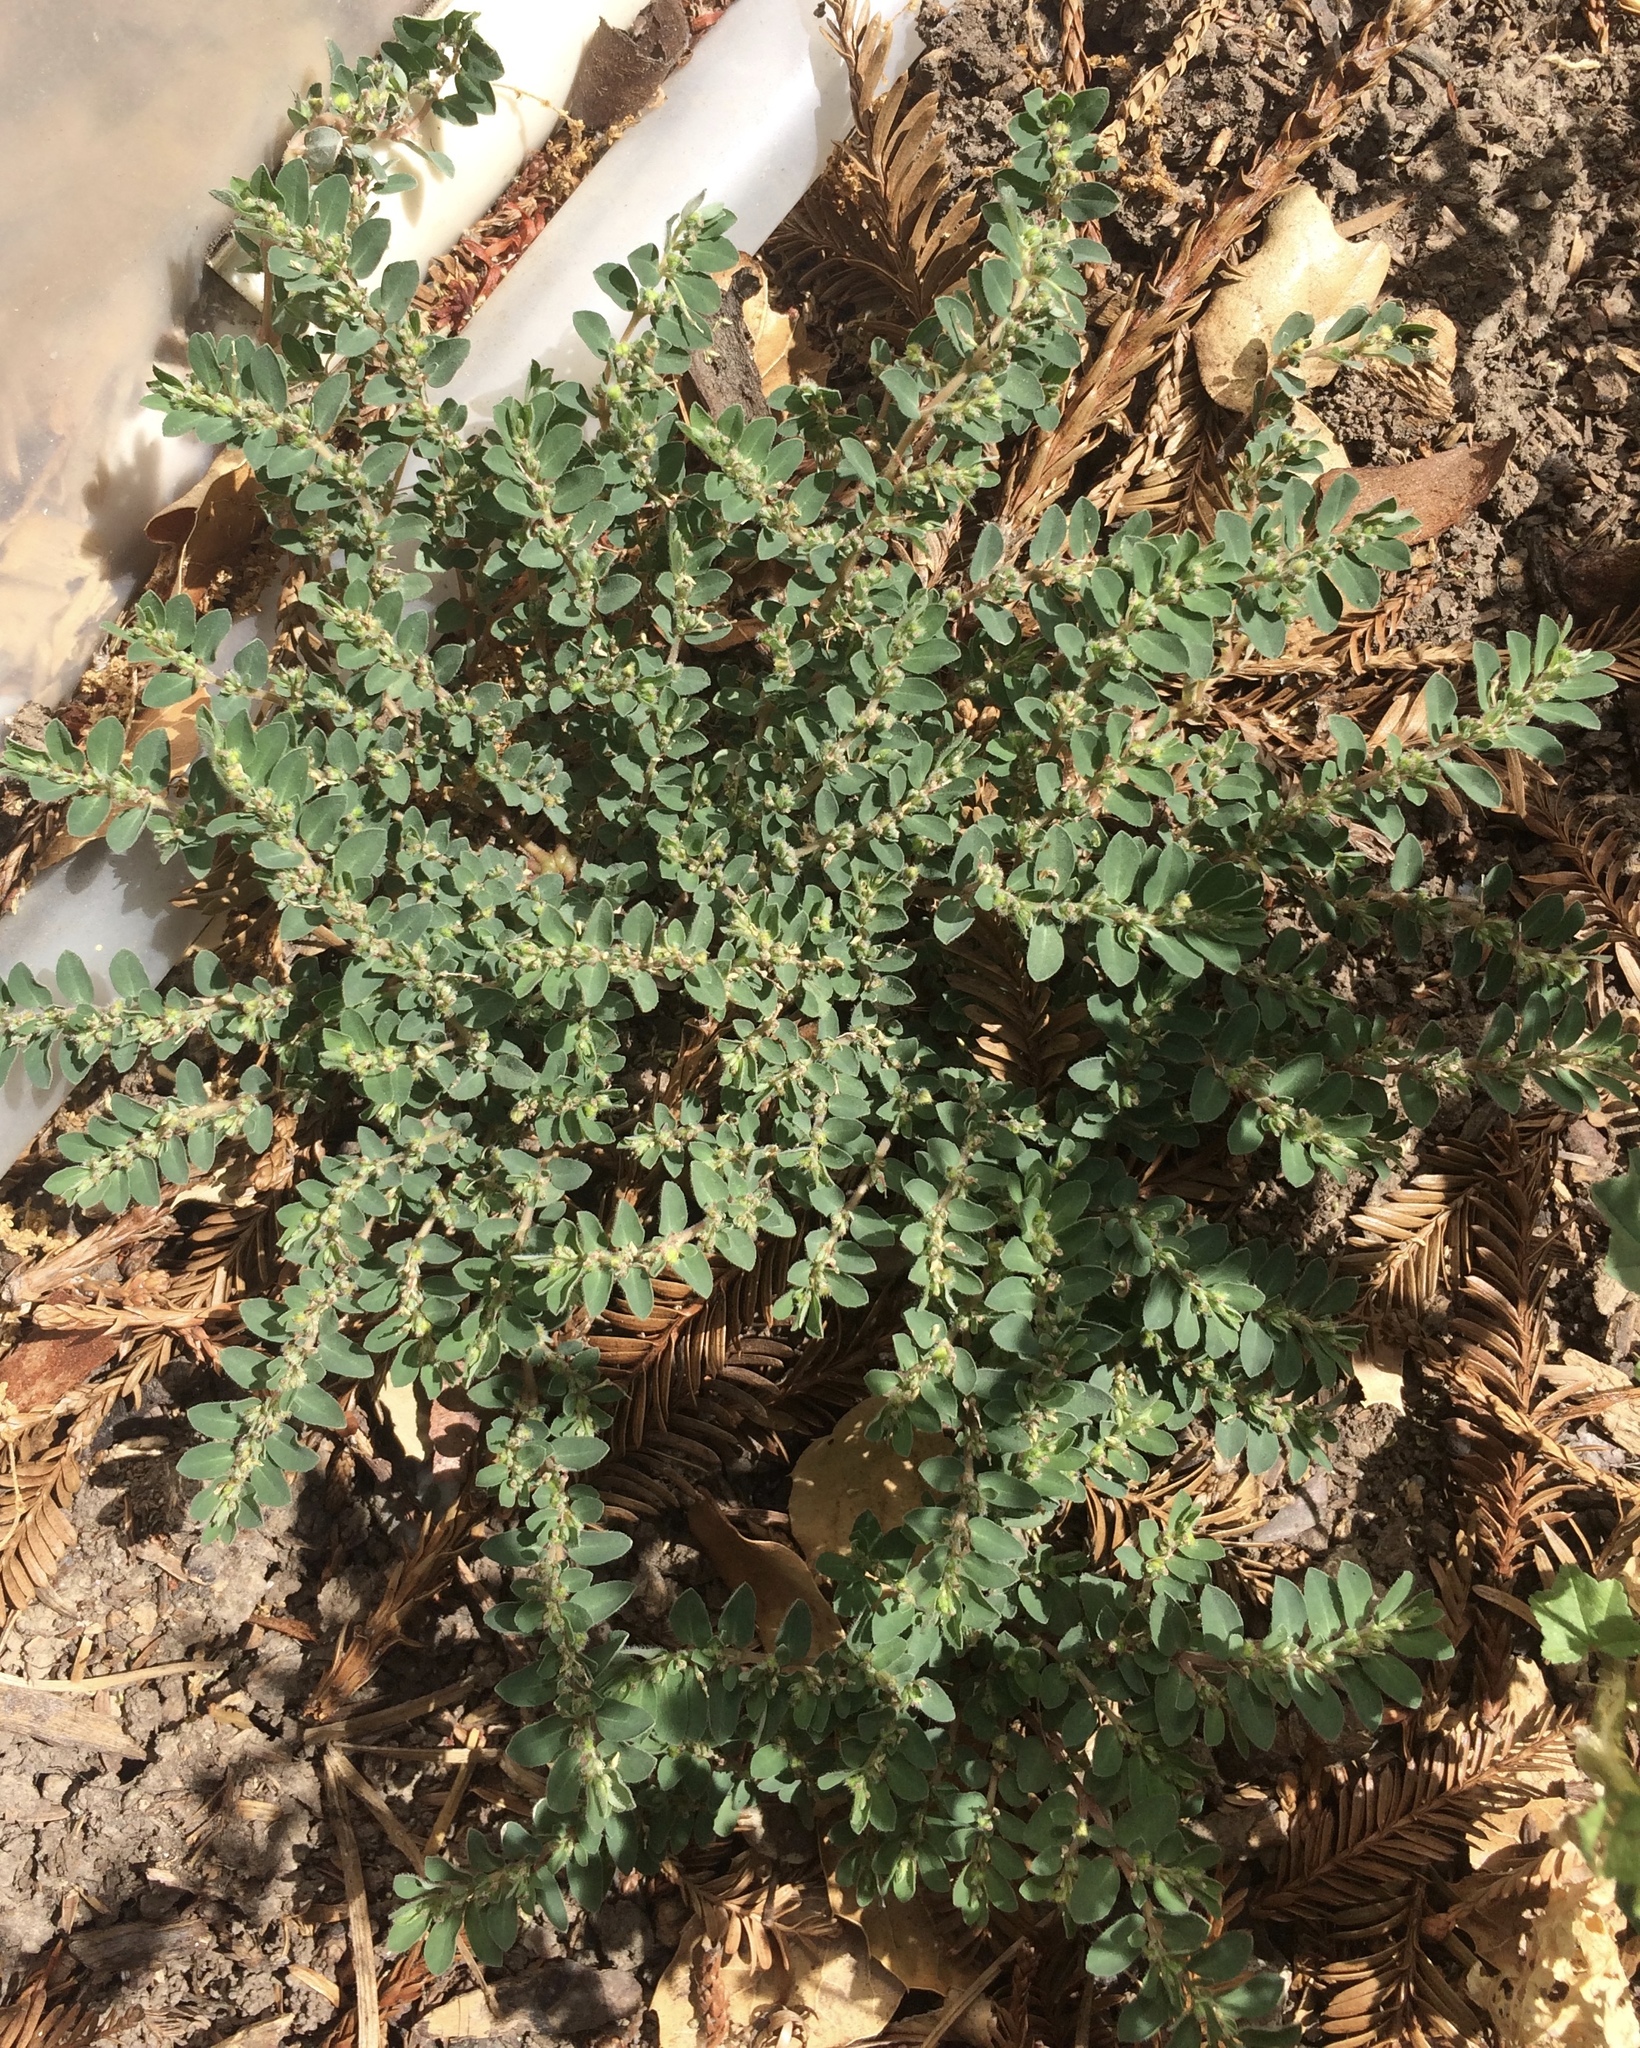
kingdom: Plantae
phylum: Tracheophyta
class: Magnoliopsida
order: Malpighiales
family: Euphorbiaceae
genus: Euphorbia
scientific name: Euphorbia prostrata
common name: Prostrate sandmat
